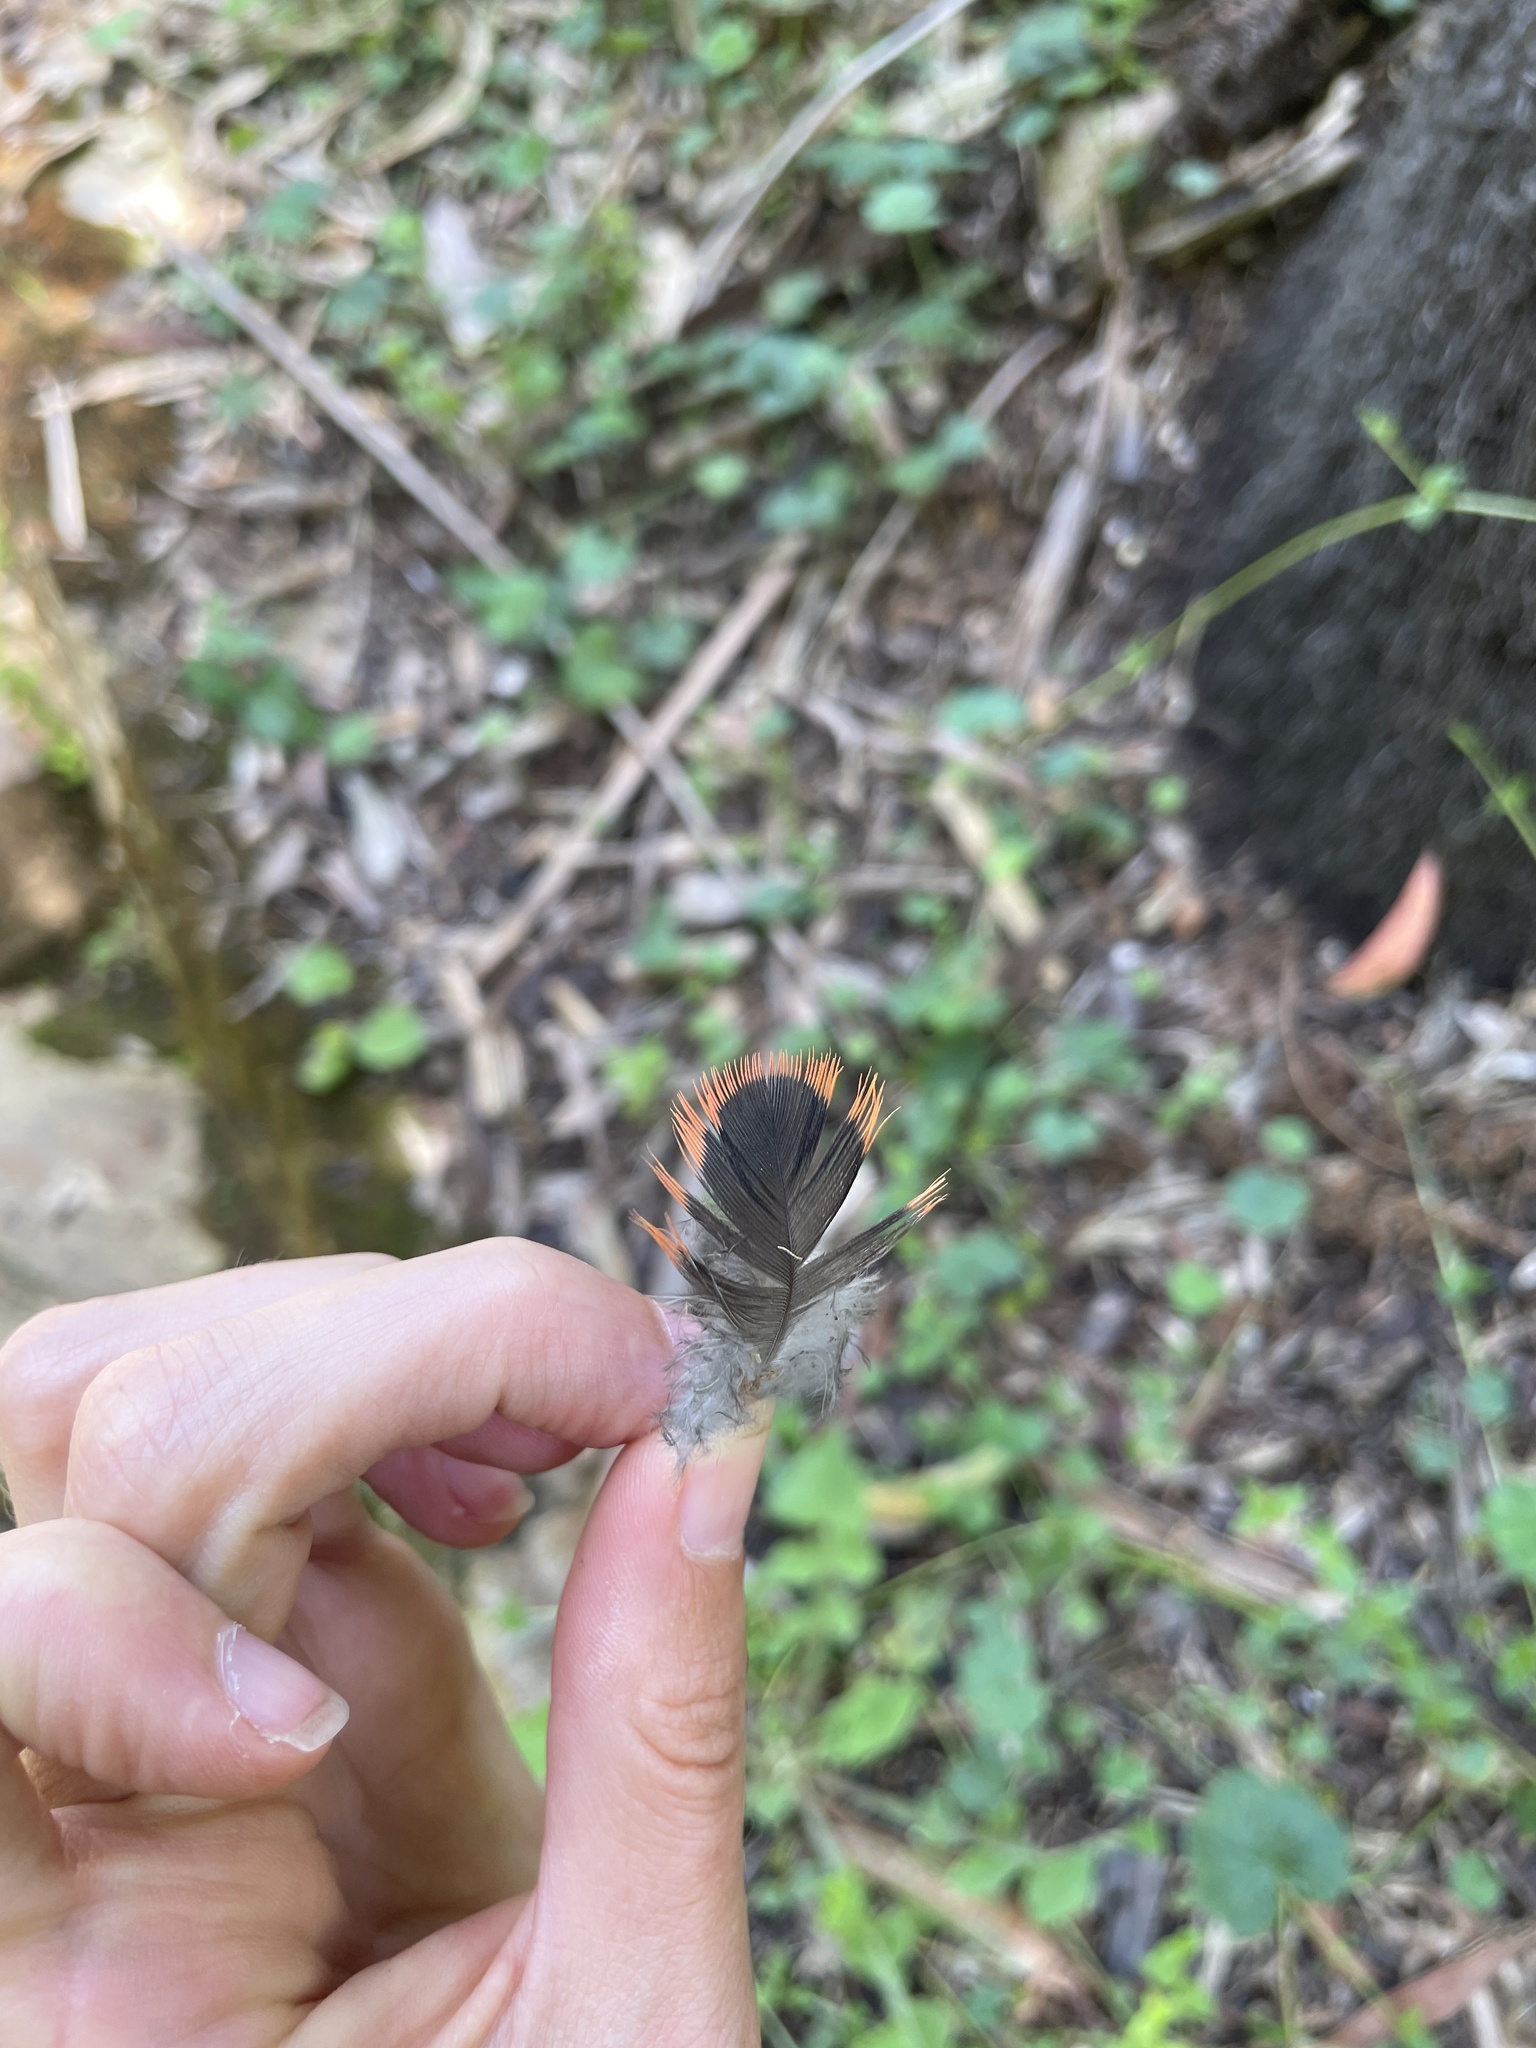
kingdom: Animalia
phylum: Chordata
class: Aves
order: Psittaciformes
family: Psittacidae
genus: Platycercus
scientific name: Platycercus elegans
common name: Crimson rosella
